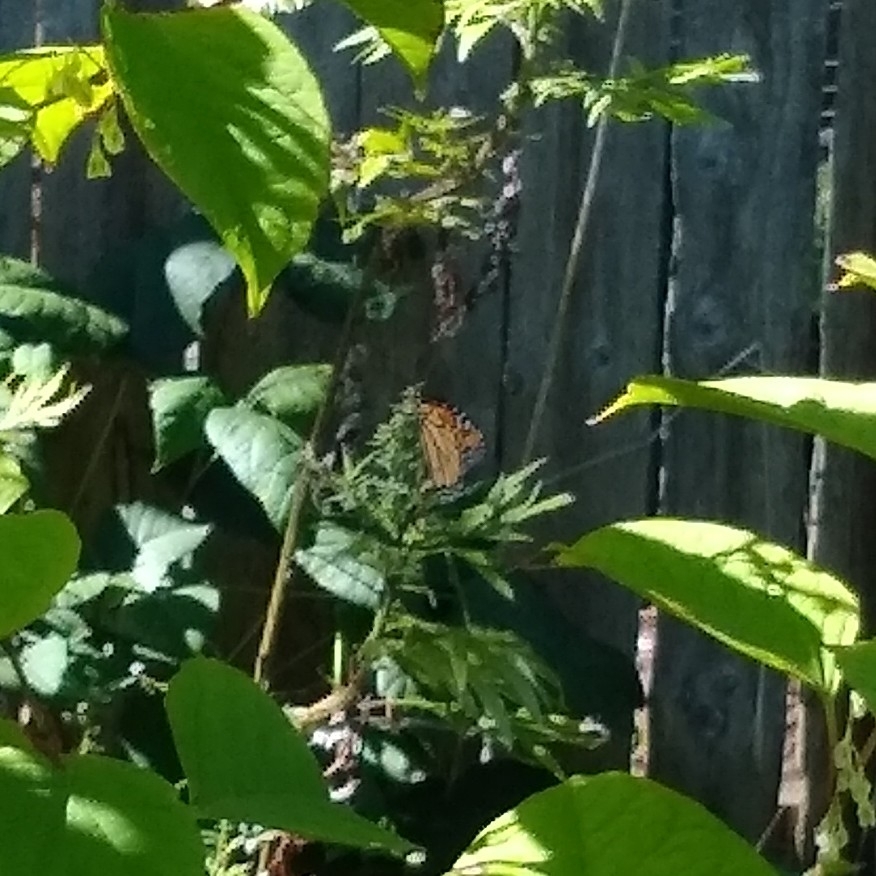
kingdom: Animalia
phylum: Arthropoda
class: Insecta
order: Lepidoptera
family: Nymphalidae
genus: Danaus
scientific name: Danaus plexippus
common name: Monarch
